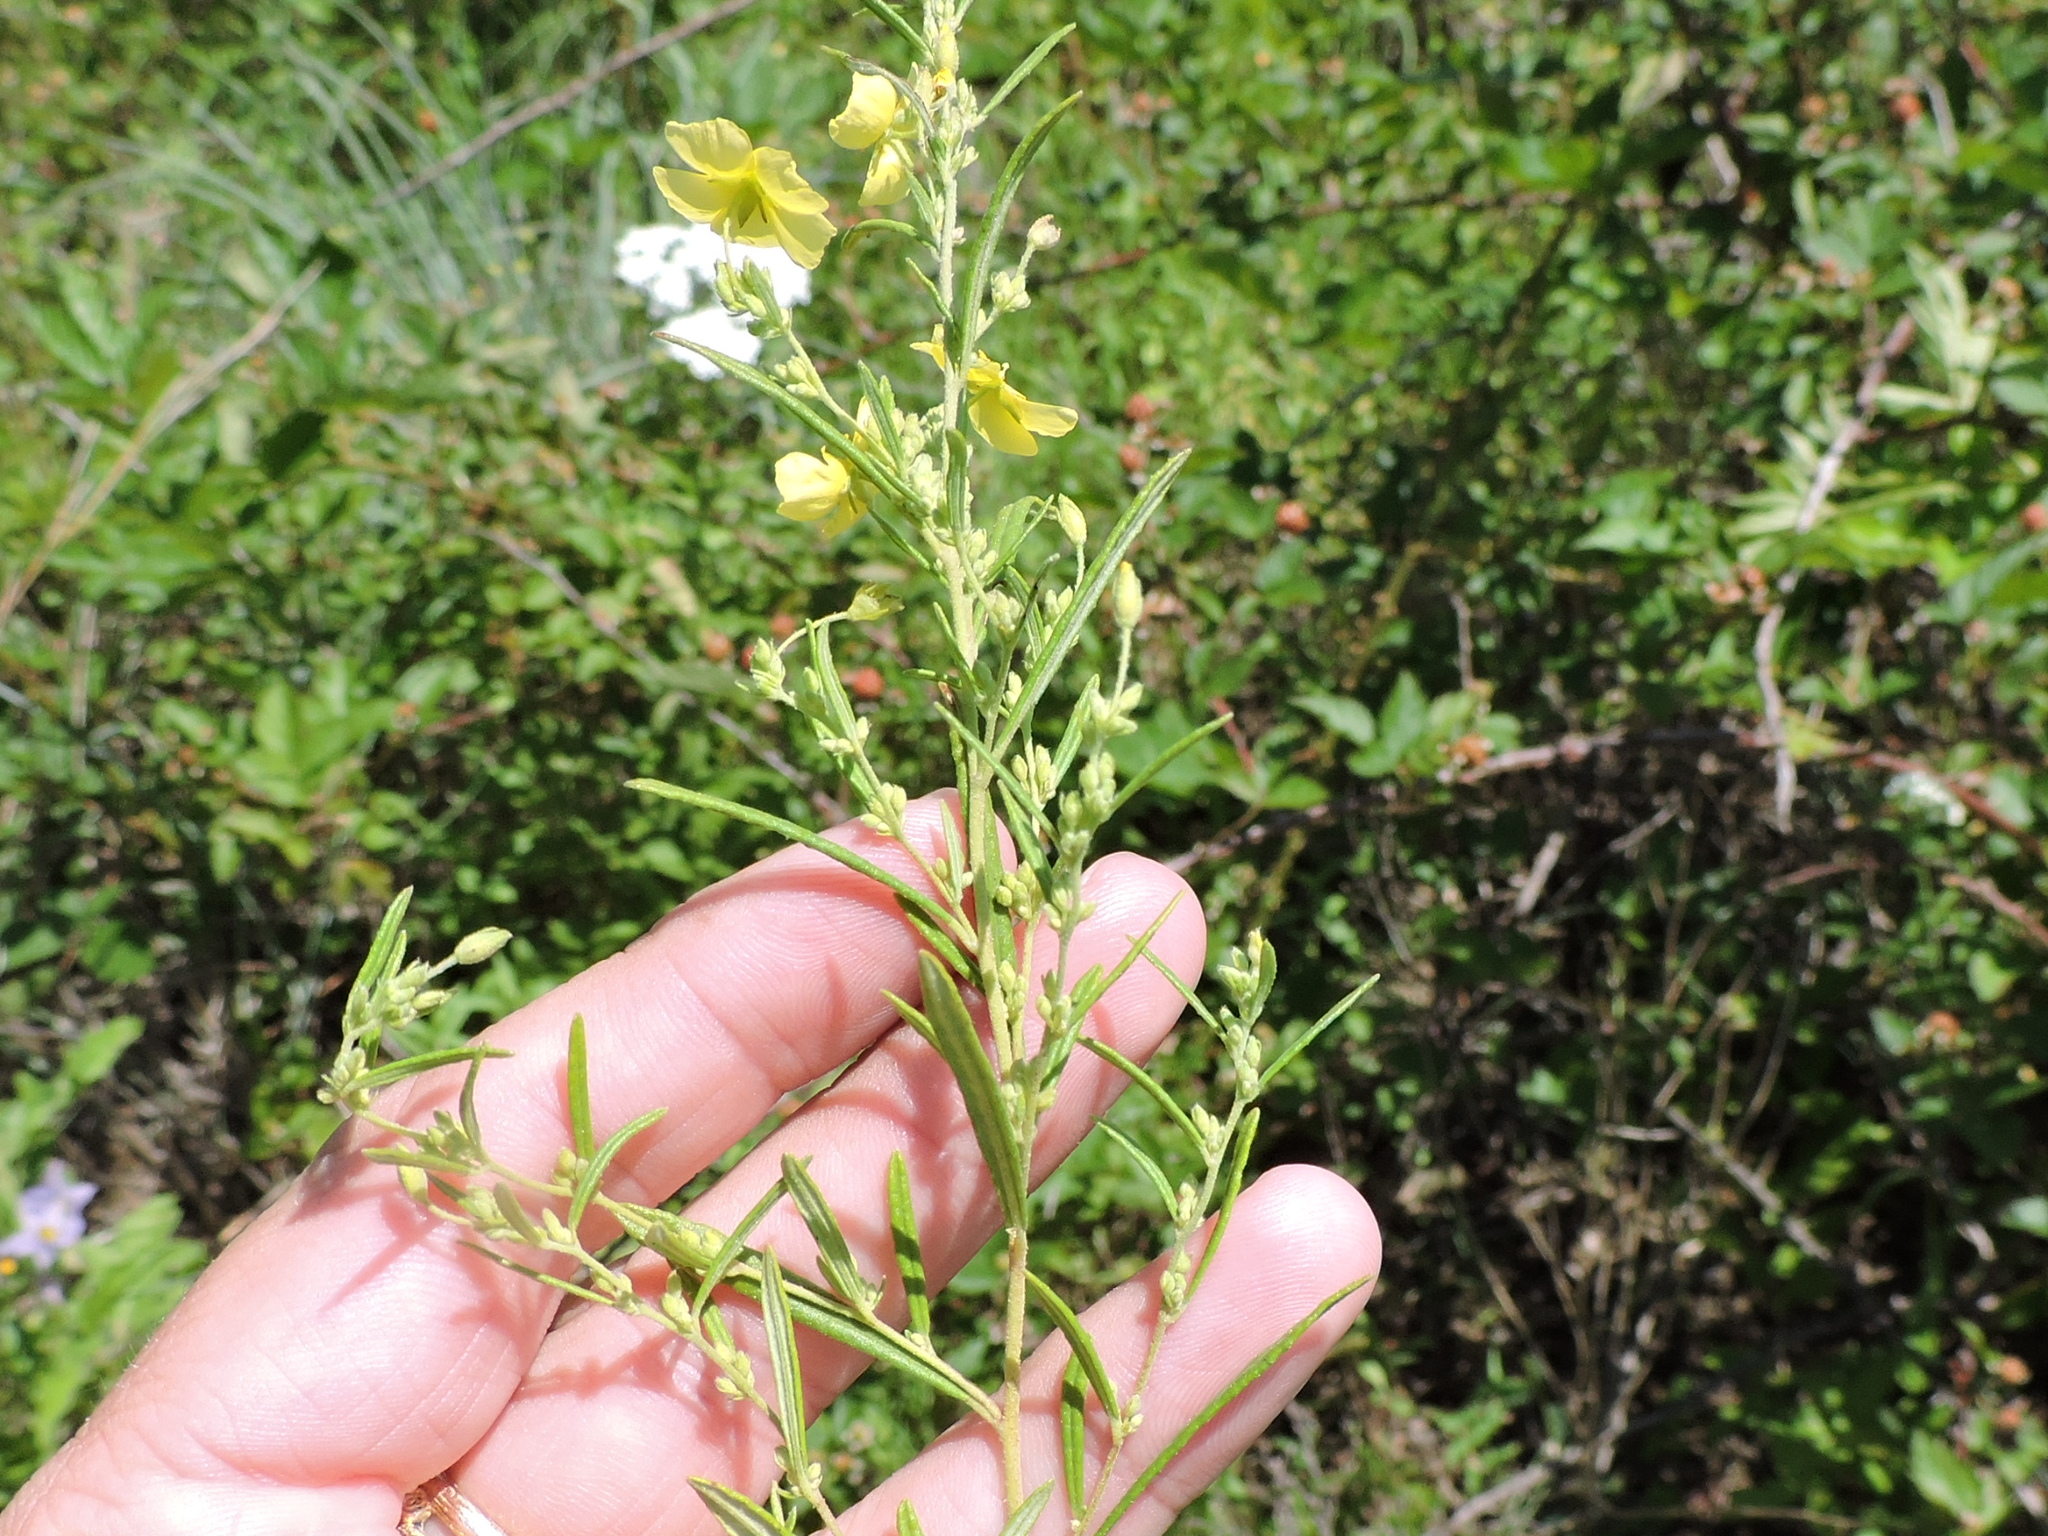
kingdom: Plantae
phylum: Tracheophyta
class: Magnoliopsida
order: Malvales
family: Cistaceae
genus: Crocanthemum
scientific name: Crocanthemum rosmarinifolium
